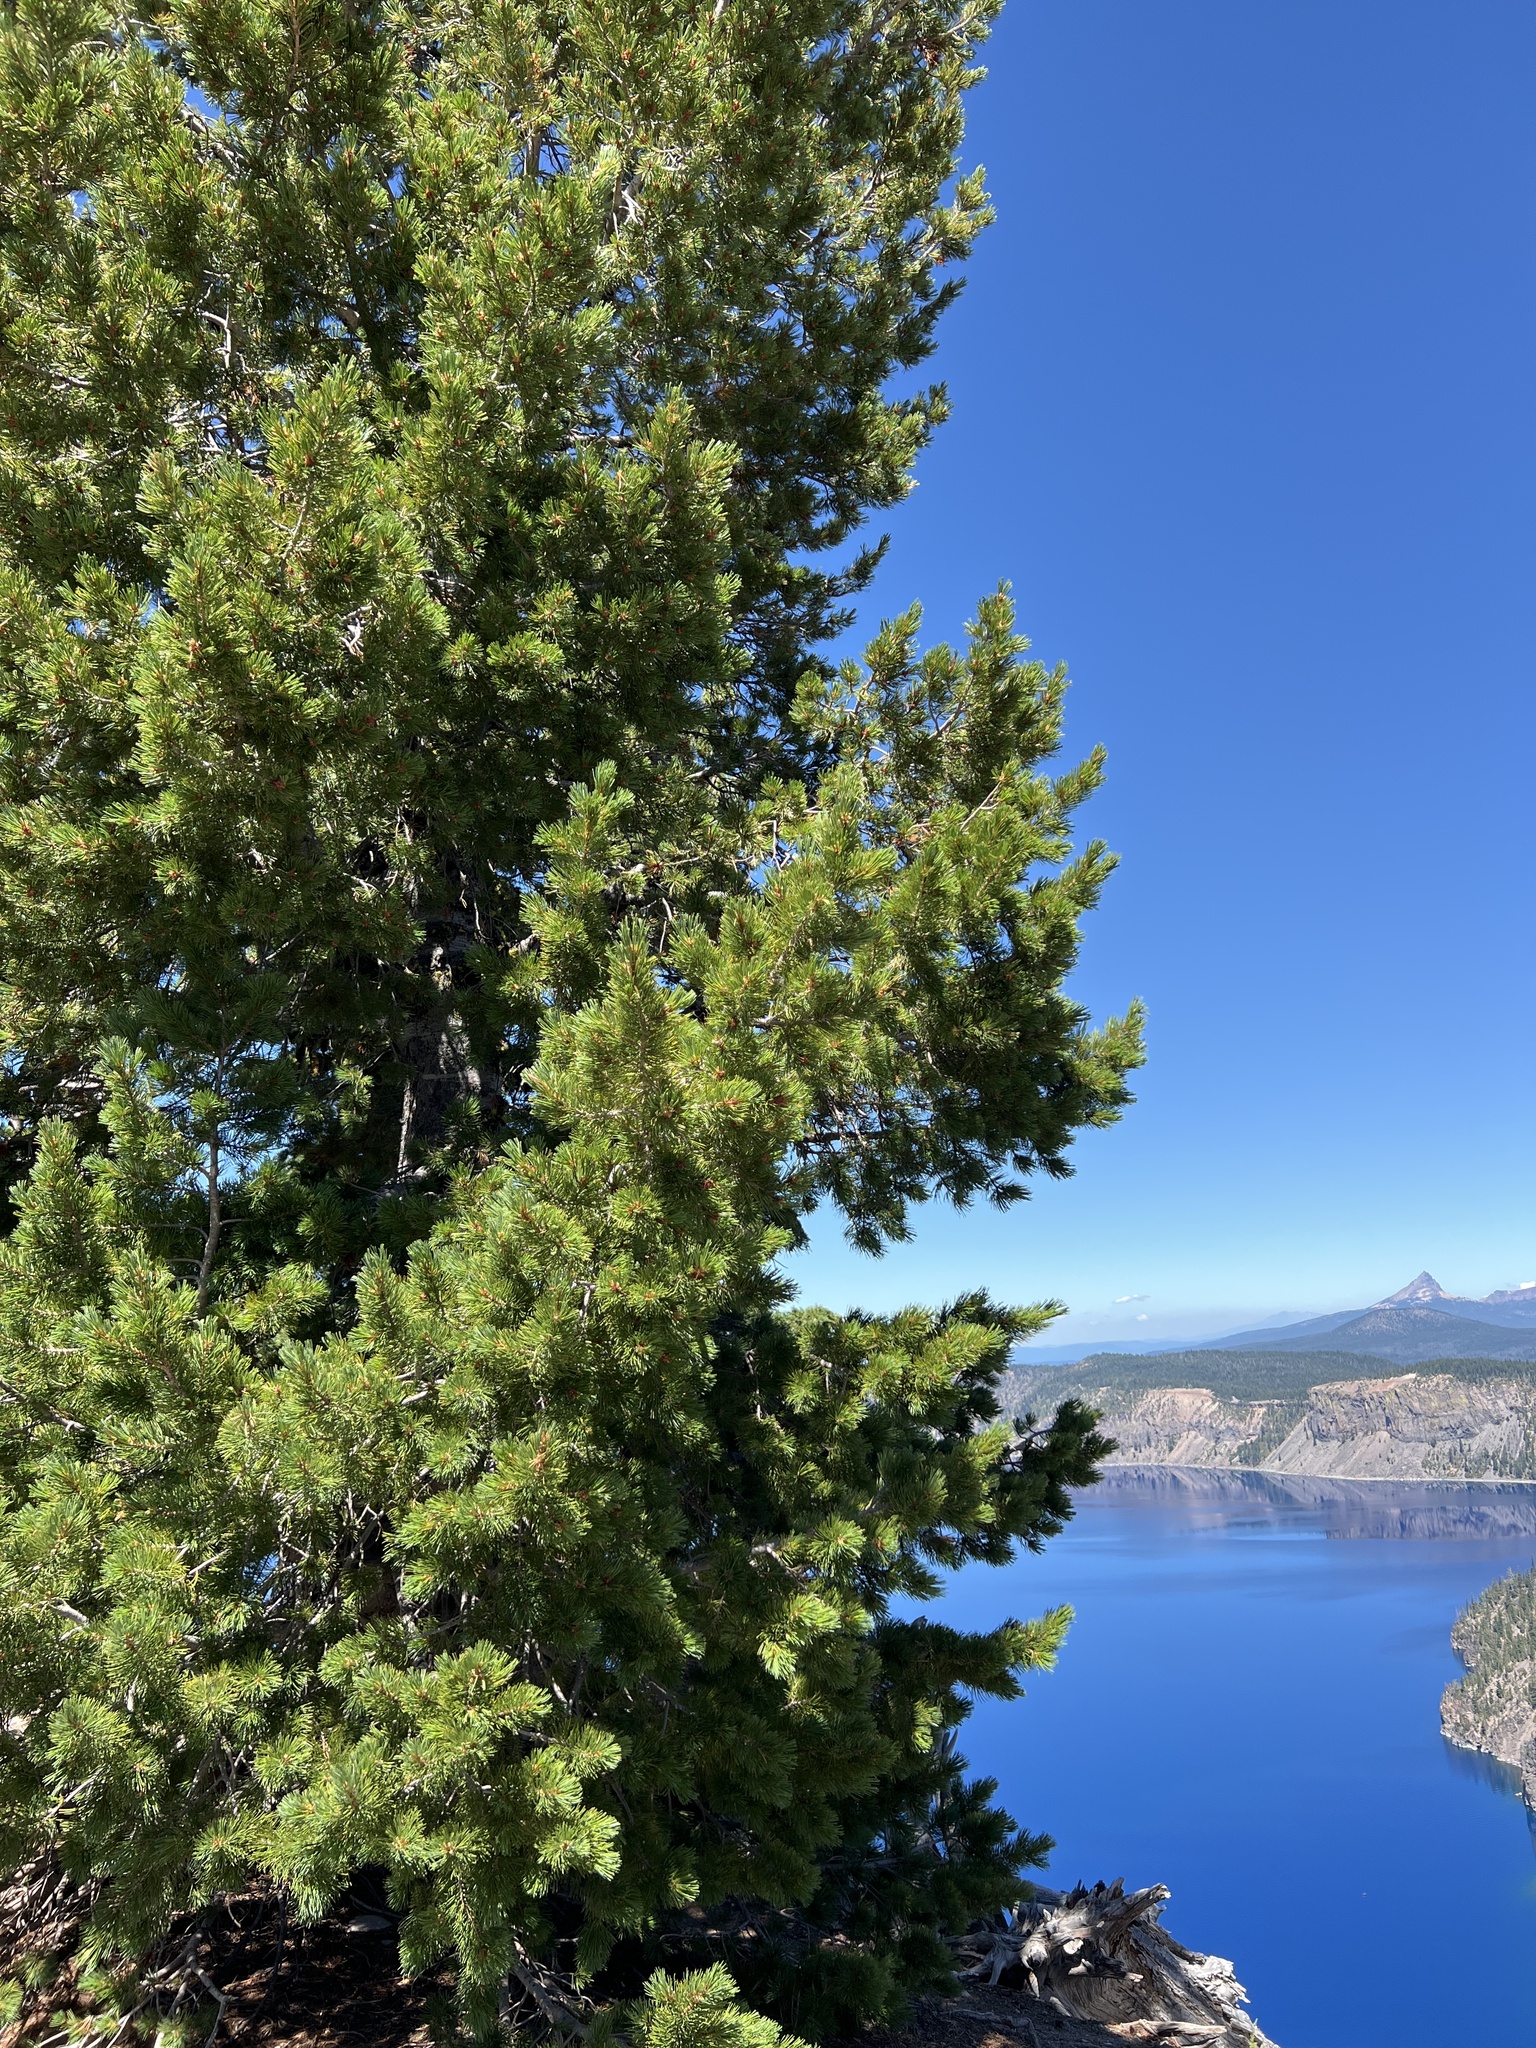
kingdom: Plantae
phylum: Tracheophyta
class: Pinopsida
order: Pinales
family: Pinaceae
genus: Pinus
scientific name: Pinus albicaulis
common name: Whitebark pine
